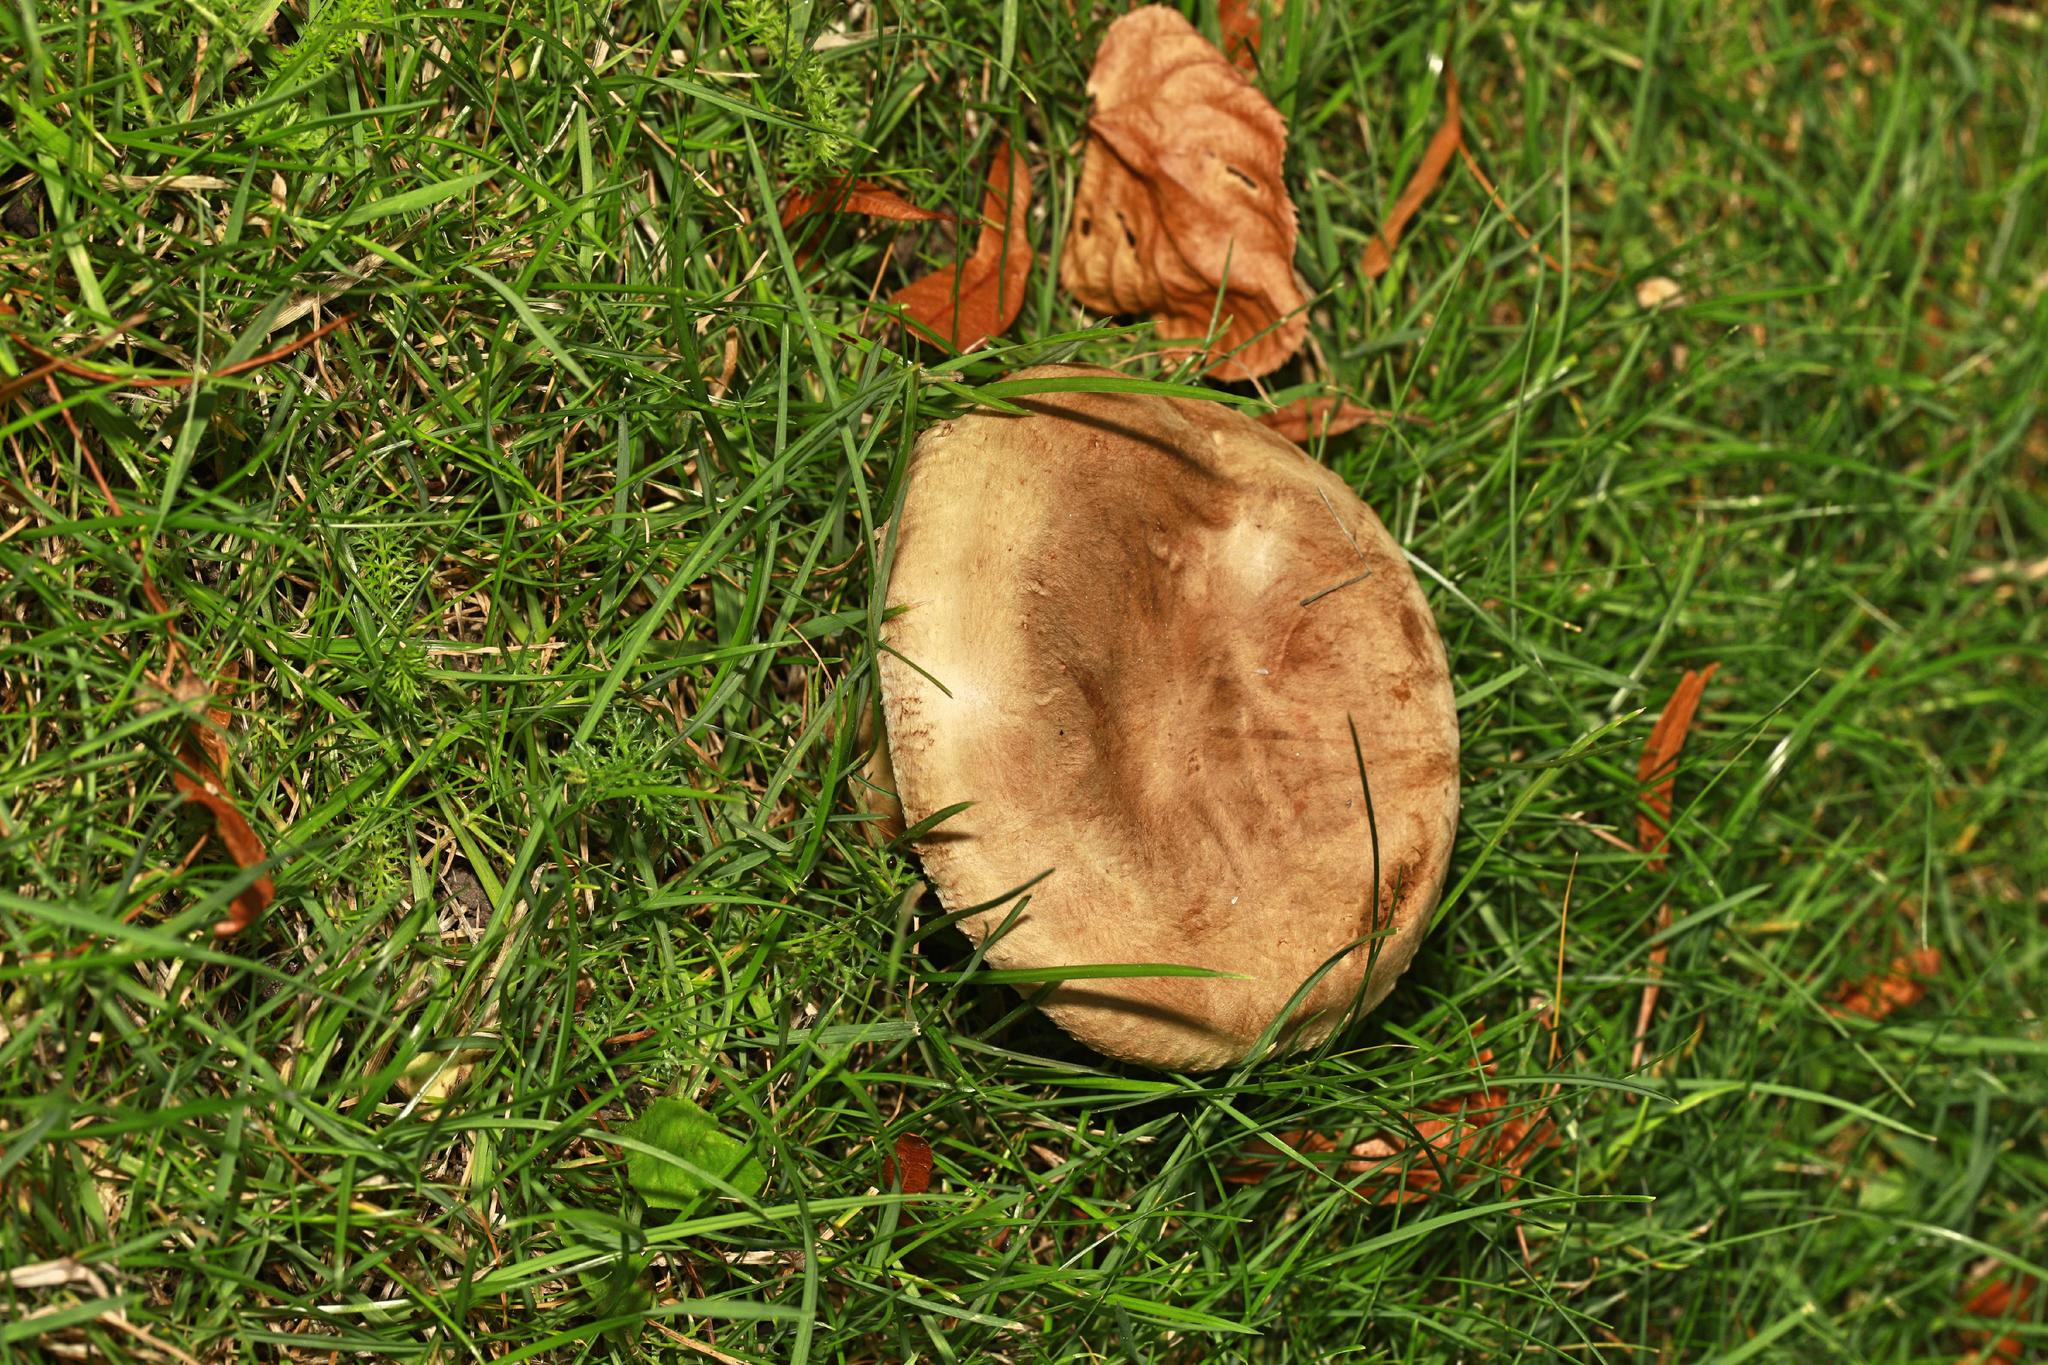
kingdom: Fungi
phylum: Basidiomycota
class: Agaricomycetes
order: Boletales
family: Paxillaceae
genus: Paxillus
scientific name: Paxillus
